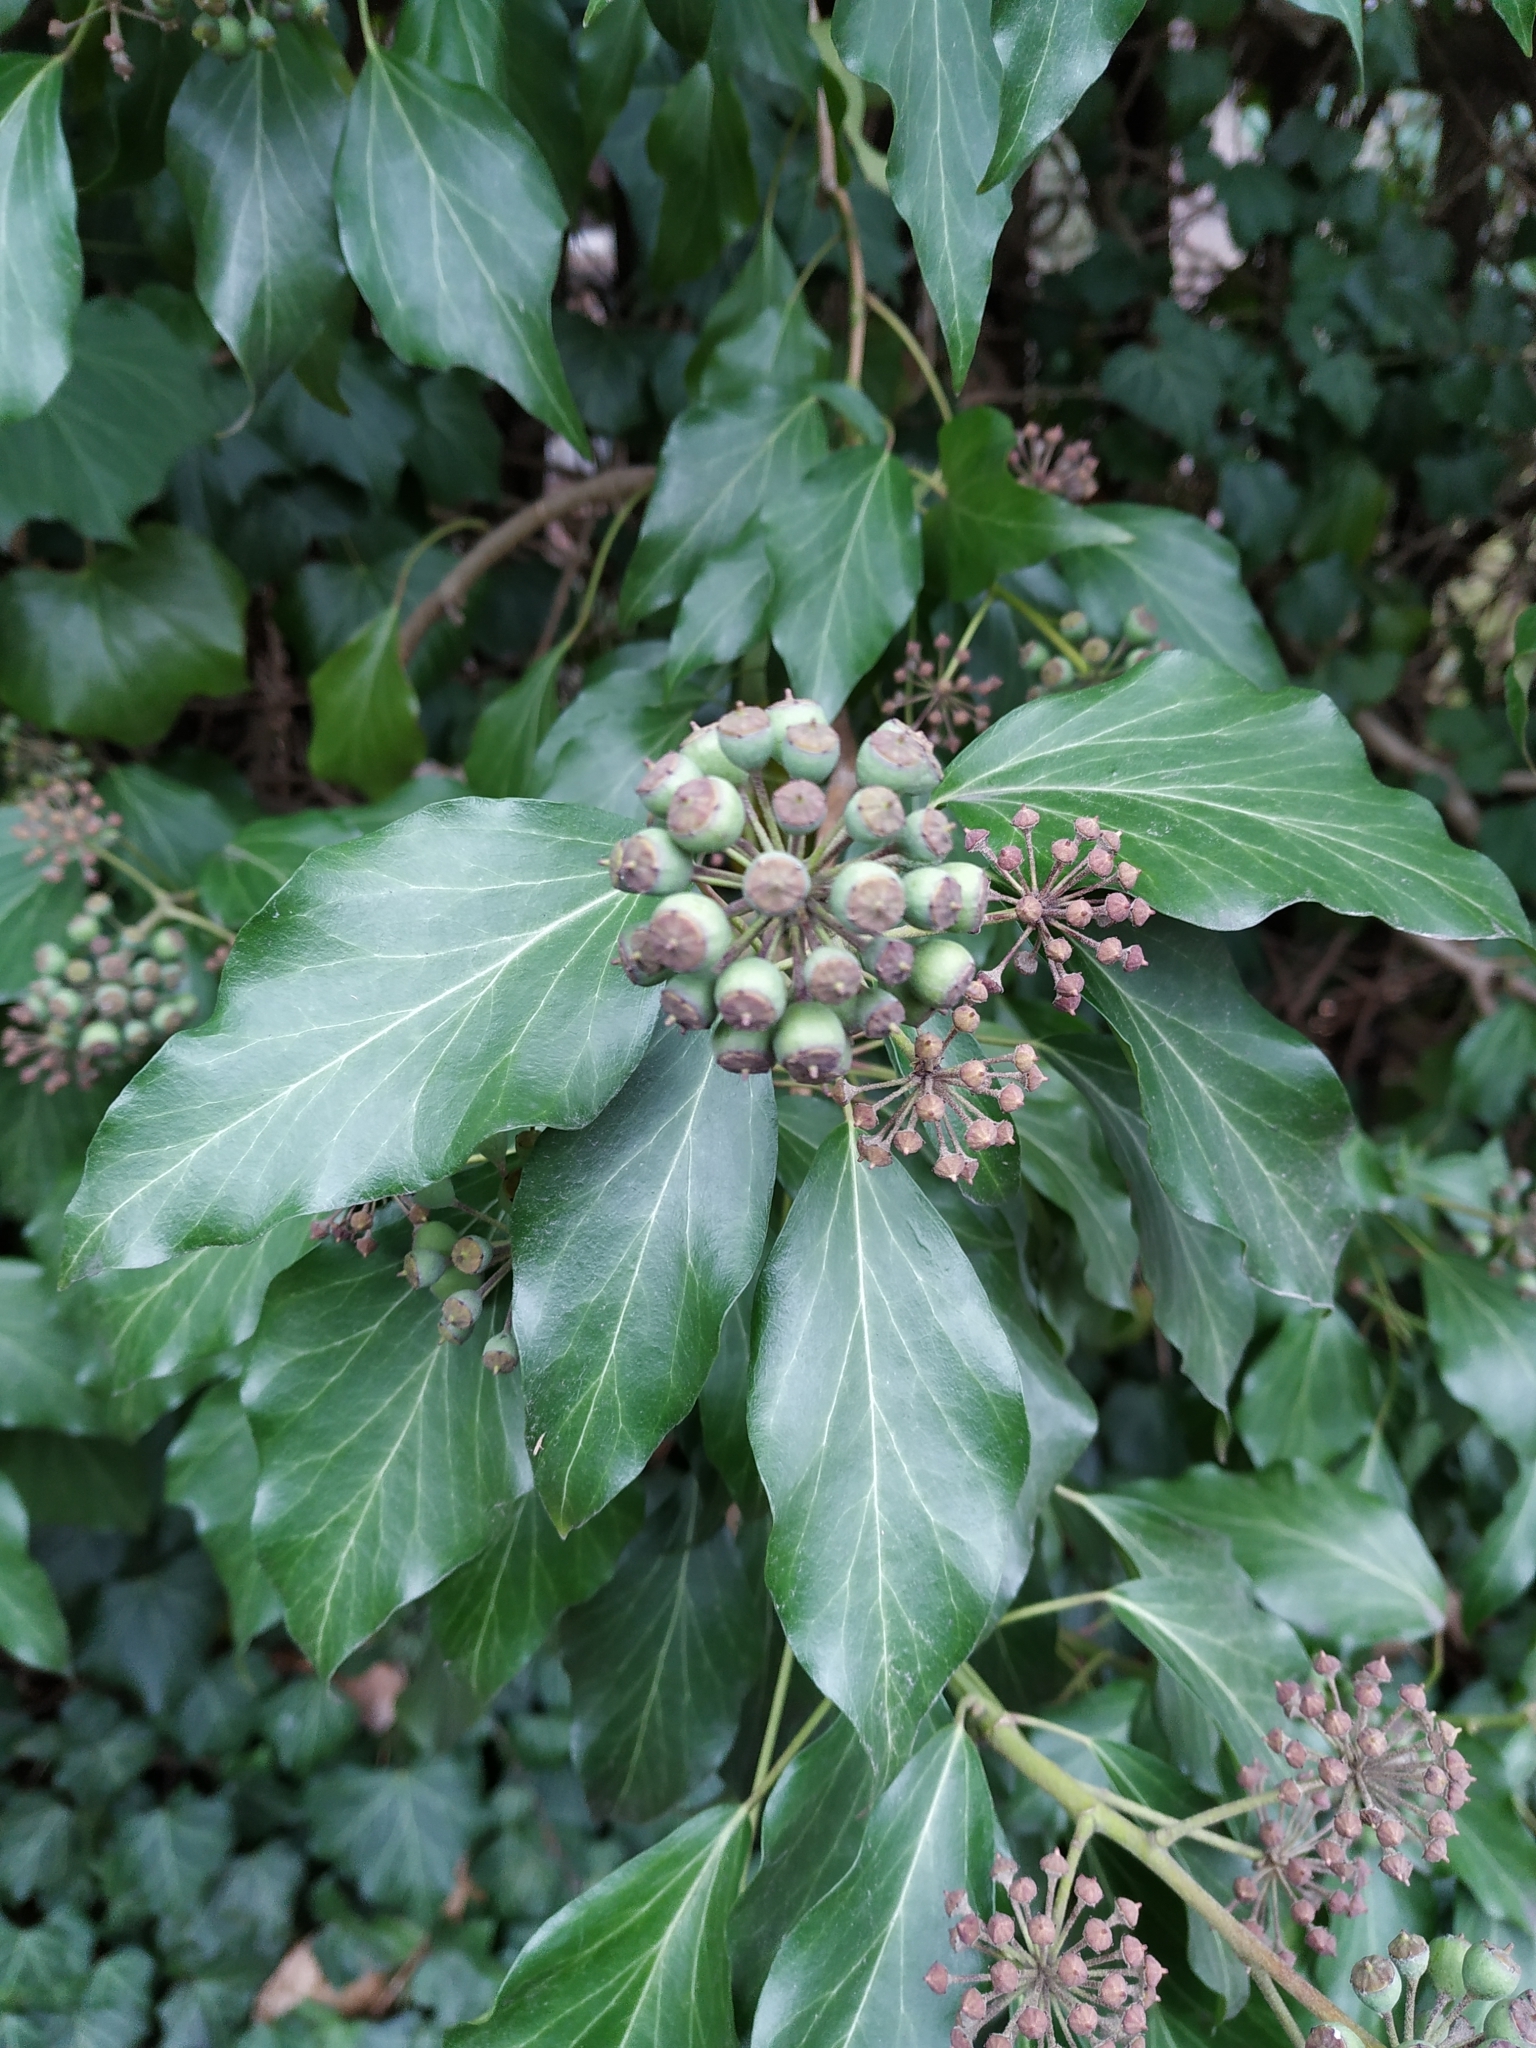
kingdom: Plantae
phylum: Tracheophyta
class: Magnoliopsida
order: Apiales
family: Araliaceae
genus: Hedera
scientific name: Hedera helix
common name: Ivy
